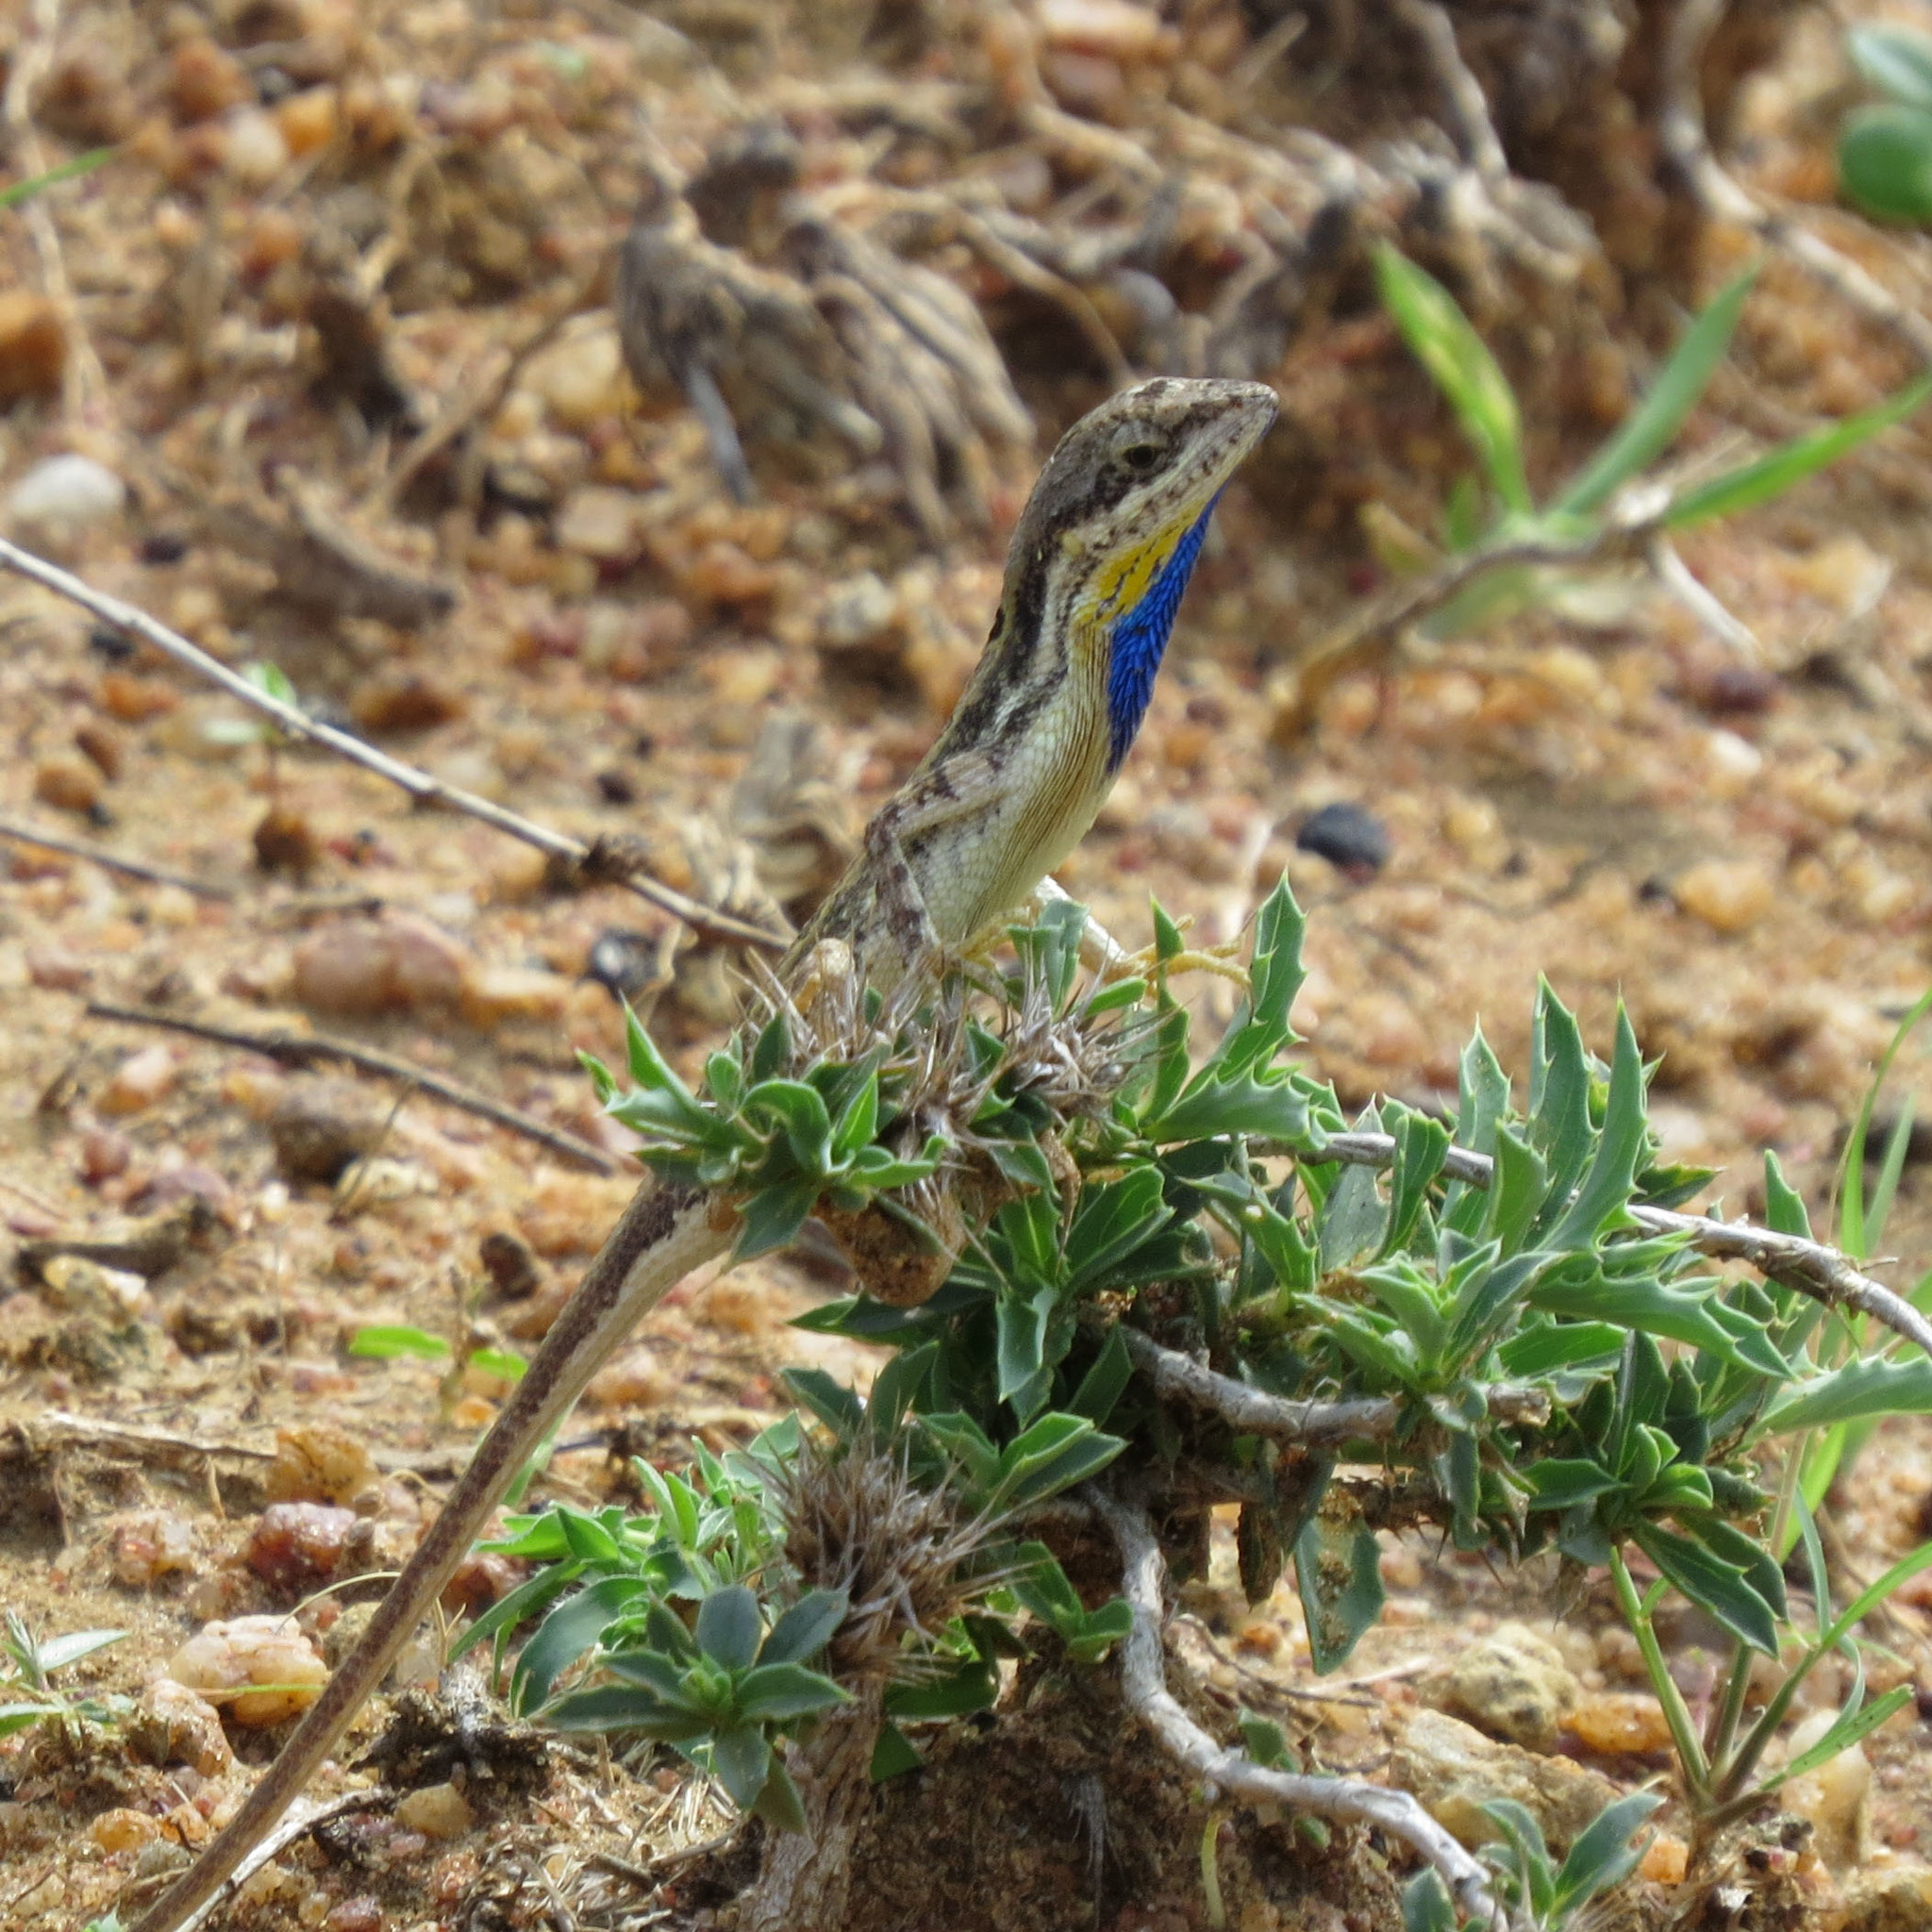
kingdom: Animalia
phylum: Chordata
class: Squamata
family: Agamidae
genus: Sitana
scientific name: Sitana marudhamneydhal
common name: Attenborough’s fan-throated lizard
